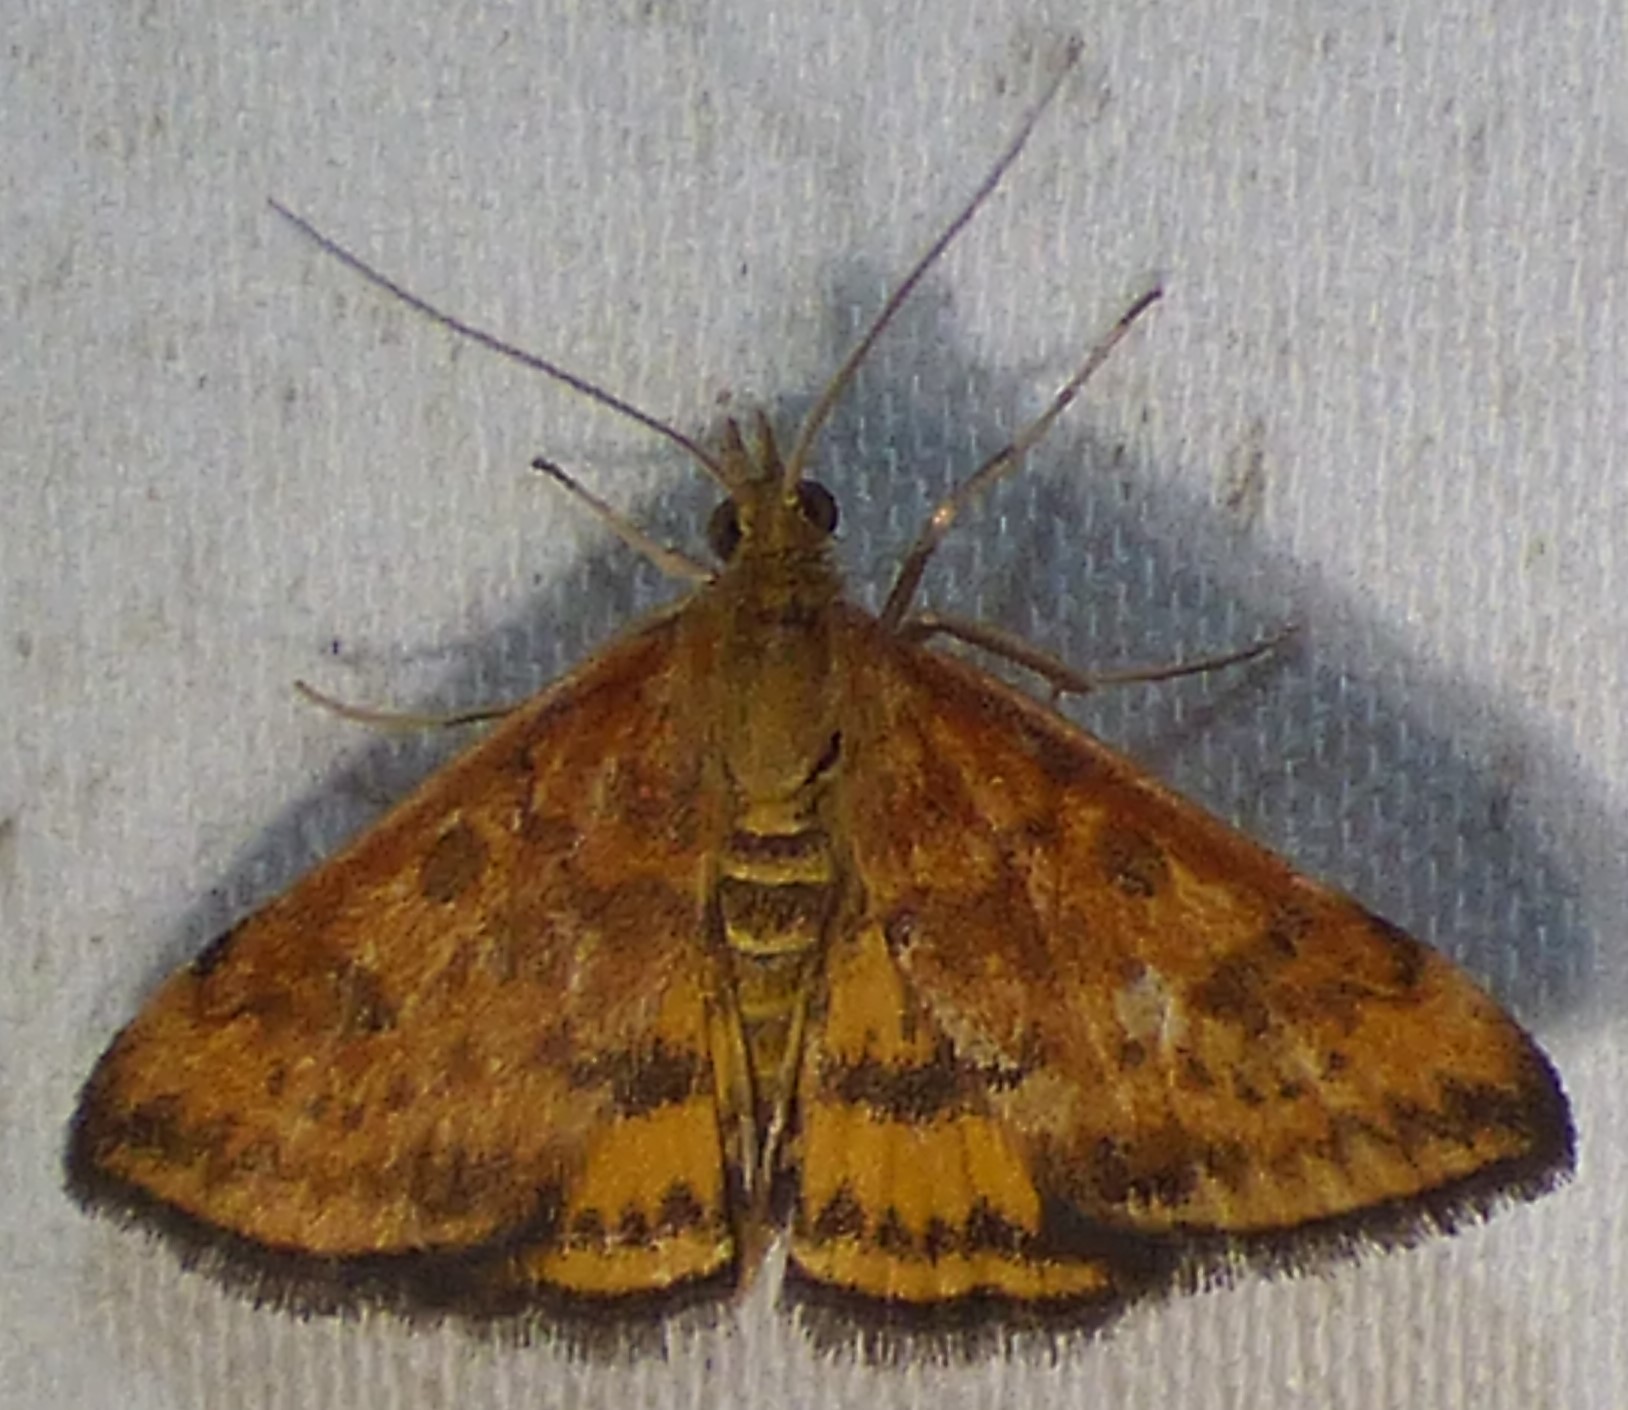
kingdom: Animalia
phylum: Arthropoda
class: Insecta
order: Lepidoptera
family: Crambidae
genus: Pyrausta
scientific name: Pyrausta subsequalis
